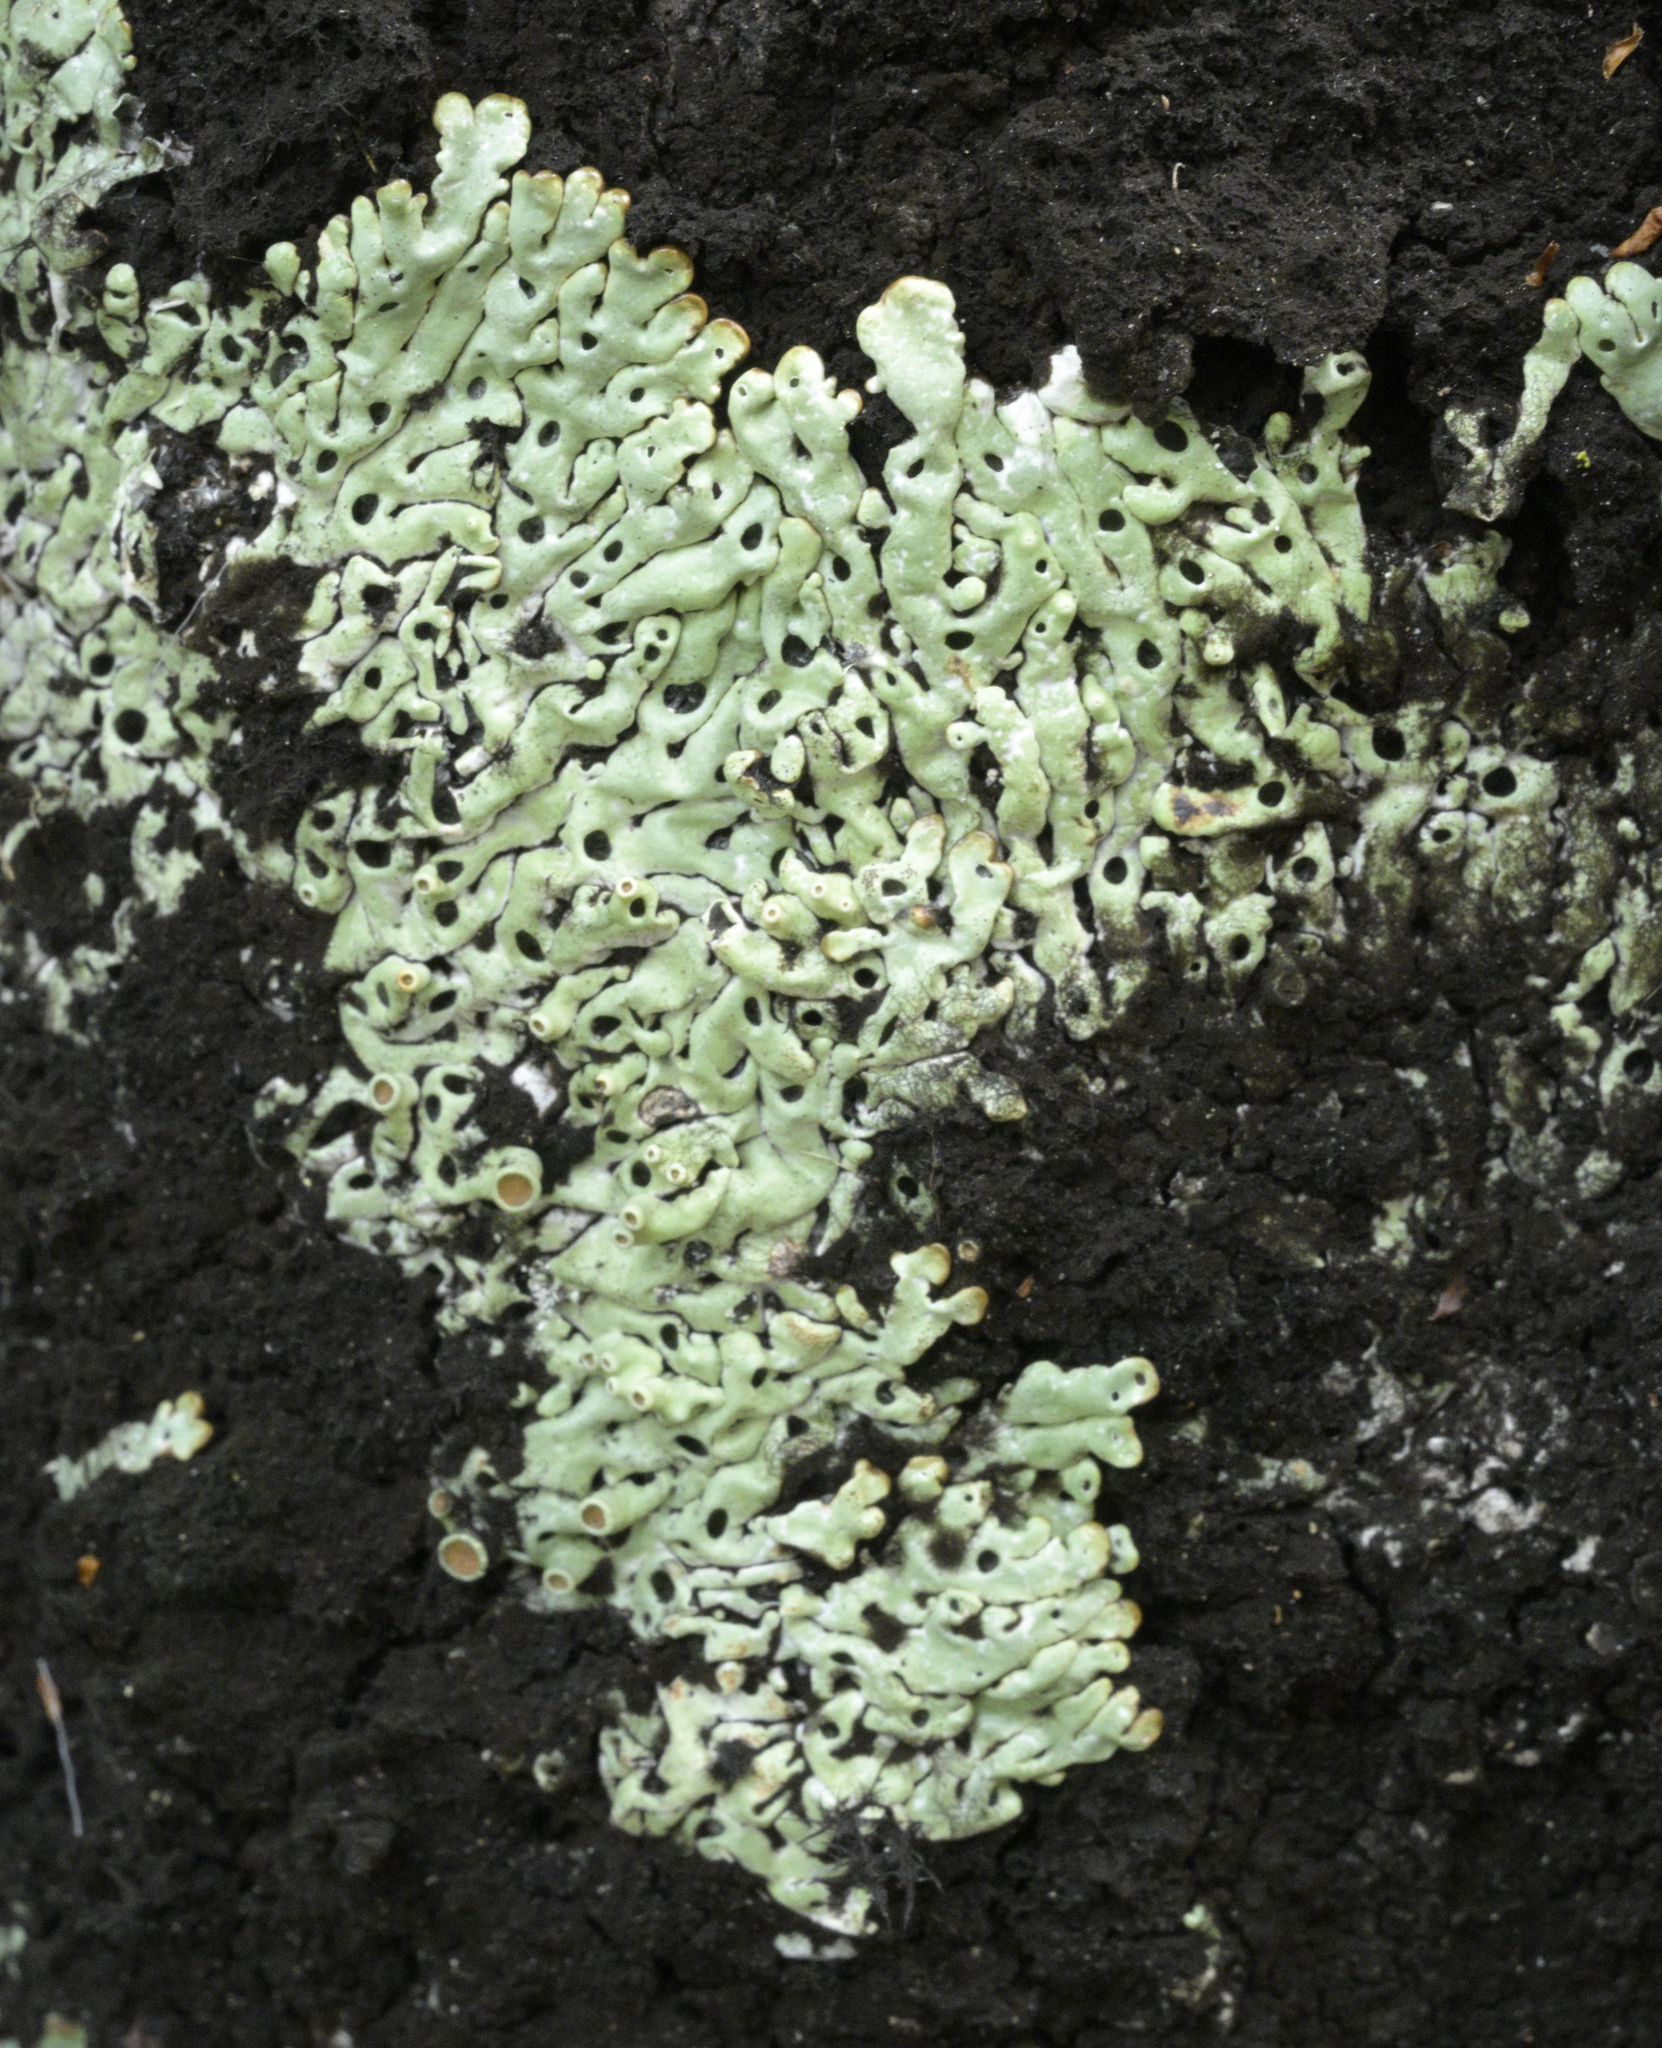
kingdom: Fungi
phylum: Ascomycota
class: Lecanoromycetes
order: Lecanorales
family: Parmeliaceae
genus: Menegazzia
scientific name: Menegazzia pertransita
